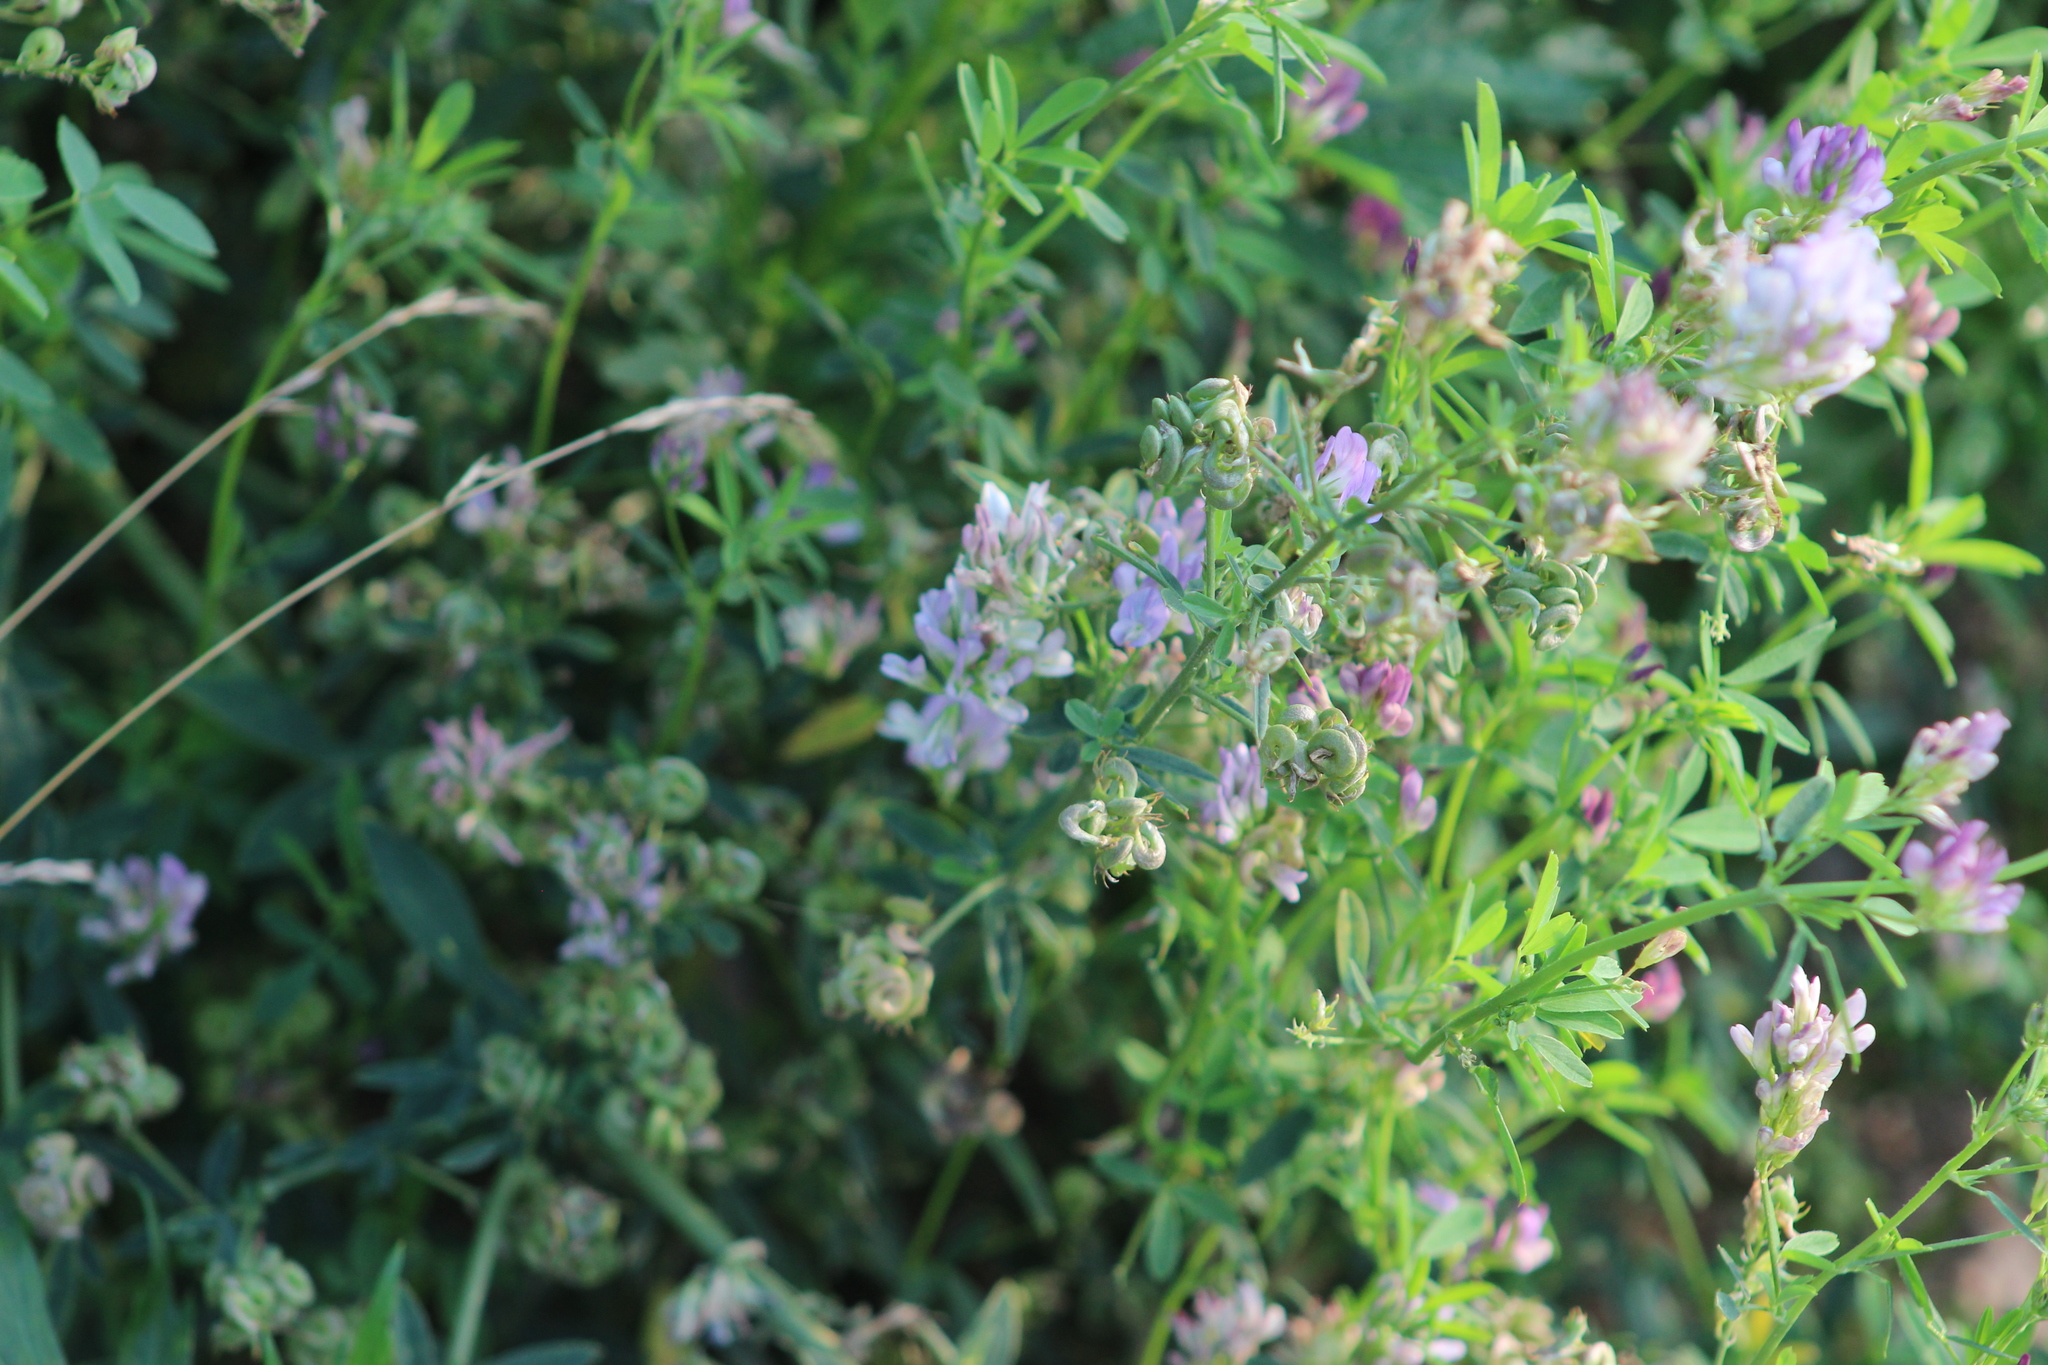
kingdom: Plantae
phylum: Tracheophyta
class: Magnoliopsida
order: Fabales
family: Fabaceae
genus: Medicago
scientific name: Medicago varia
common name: Sand lucerne
